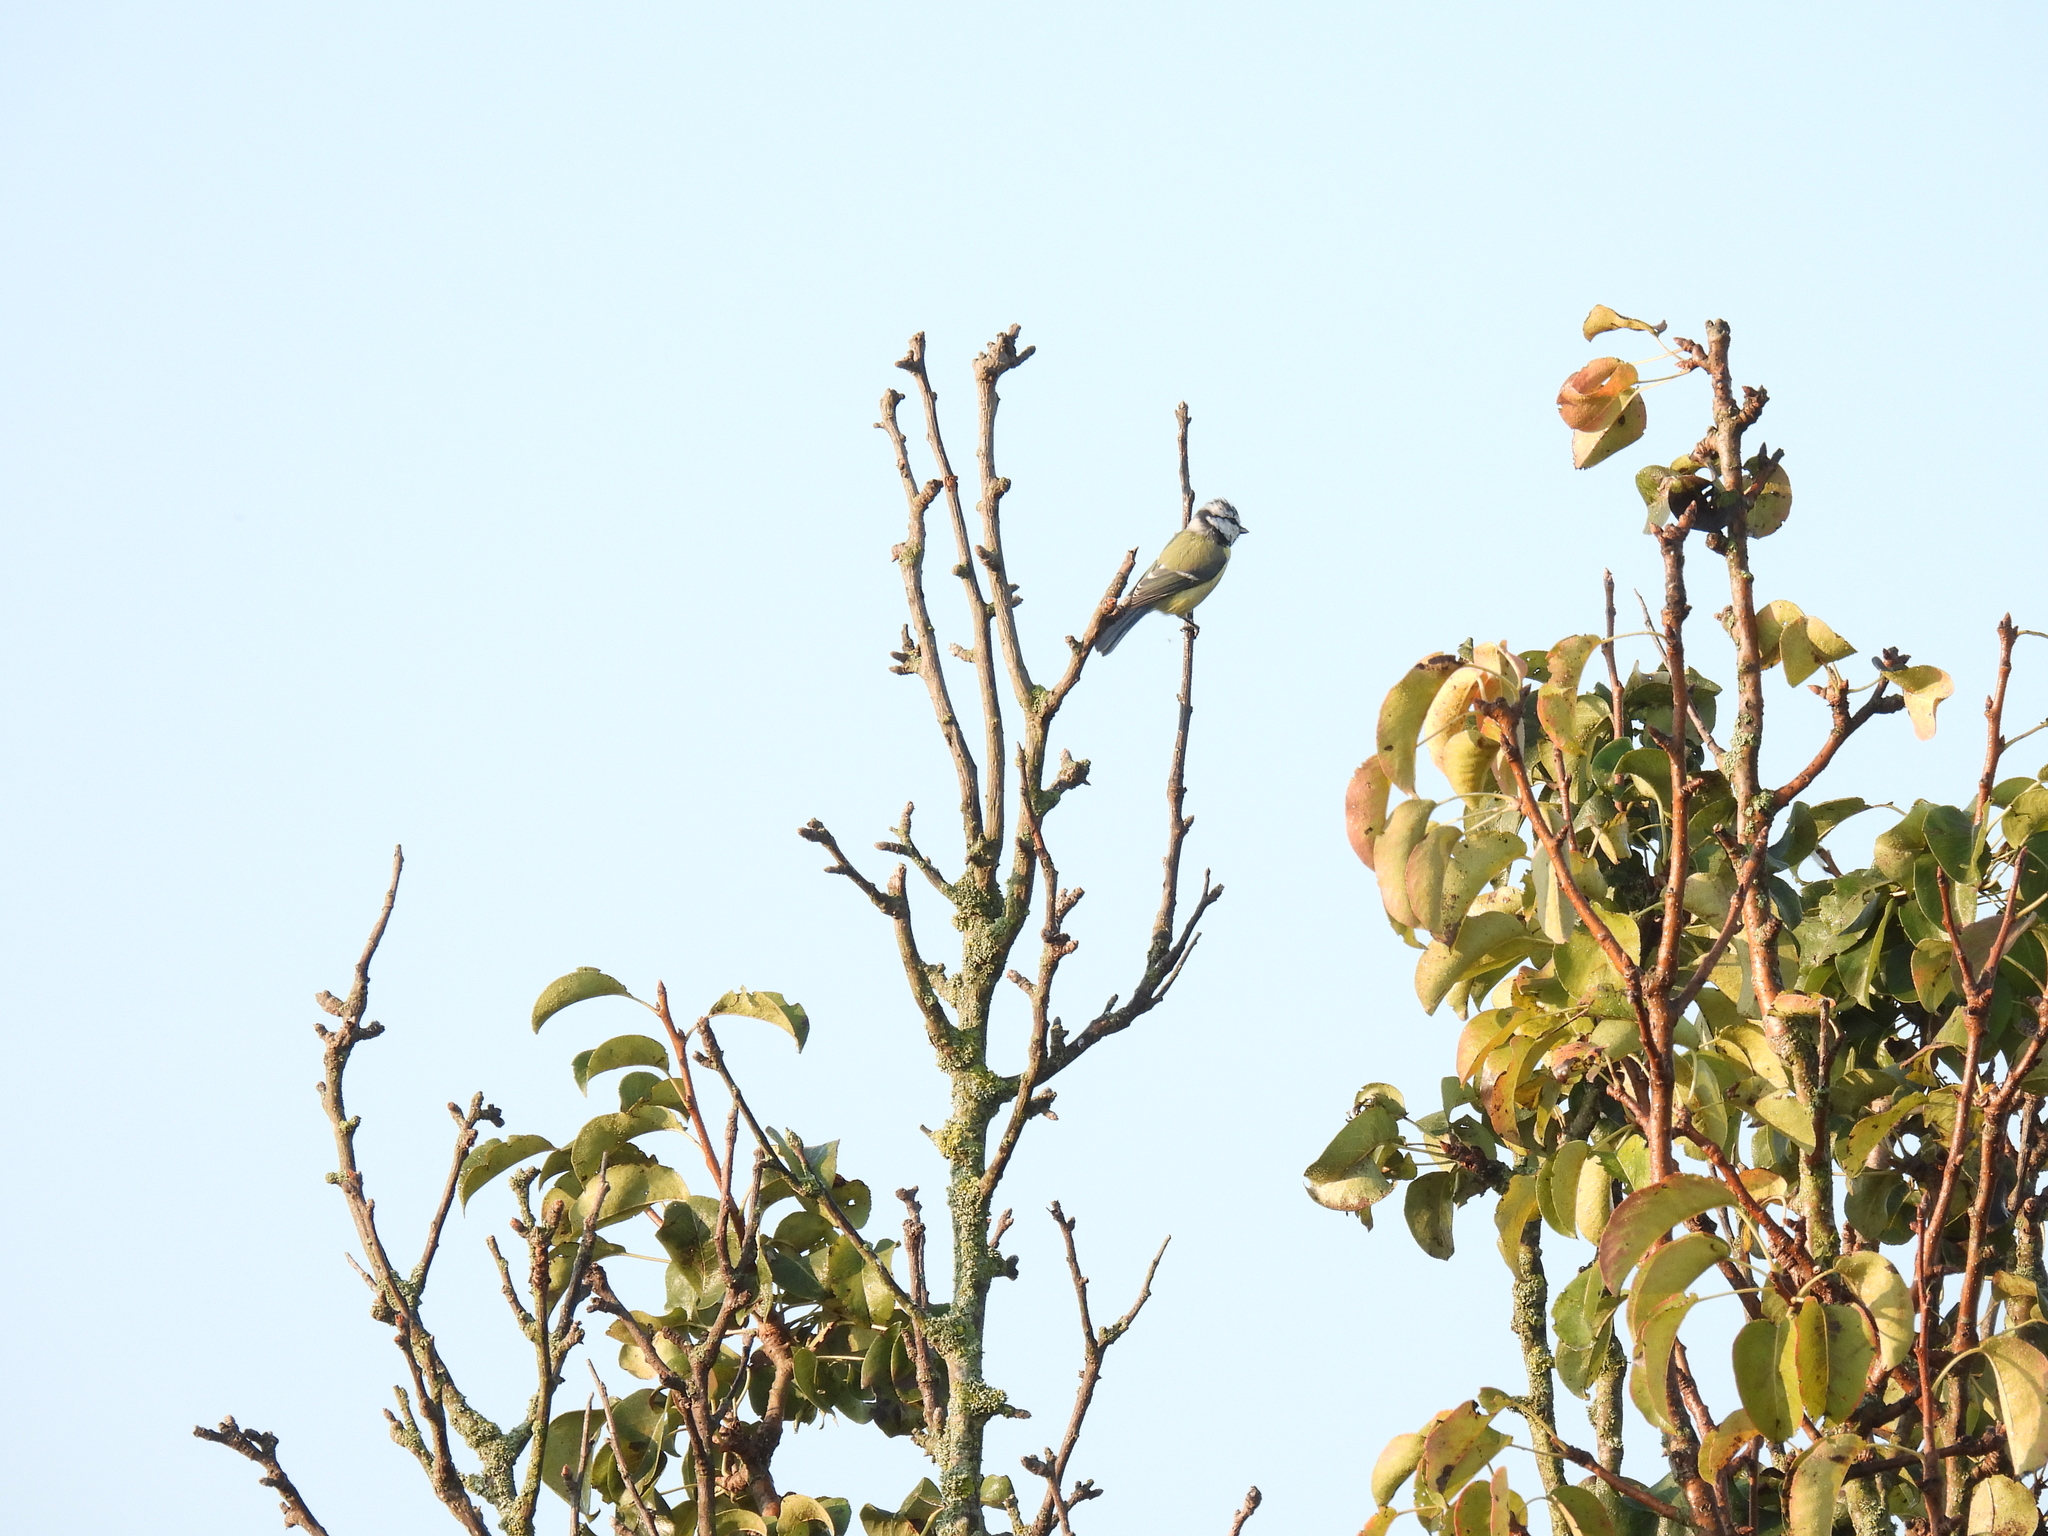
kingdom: Animalia
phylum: Chordata
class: Aves
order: Passeriformes
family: Paridae
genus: Cyanistes
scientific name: Cyanistes caeruleus
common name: Eurasian blue tit
